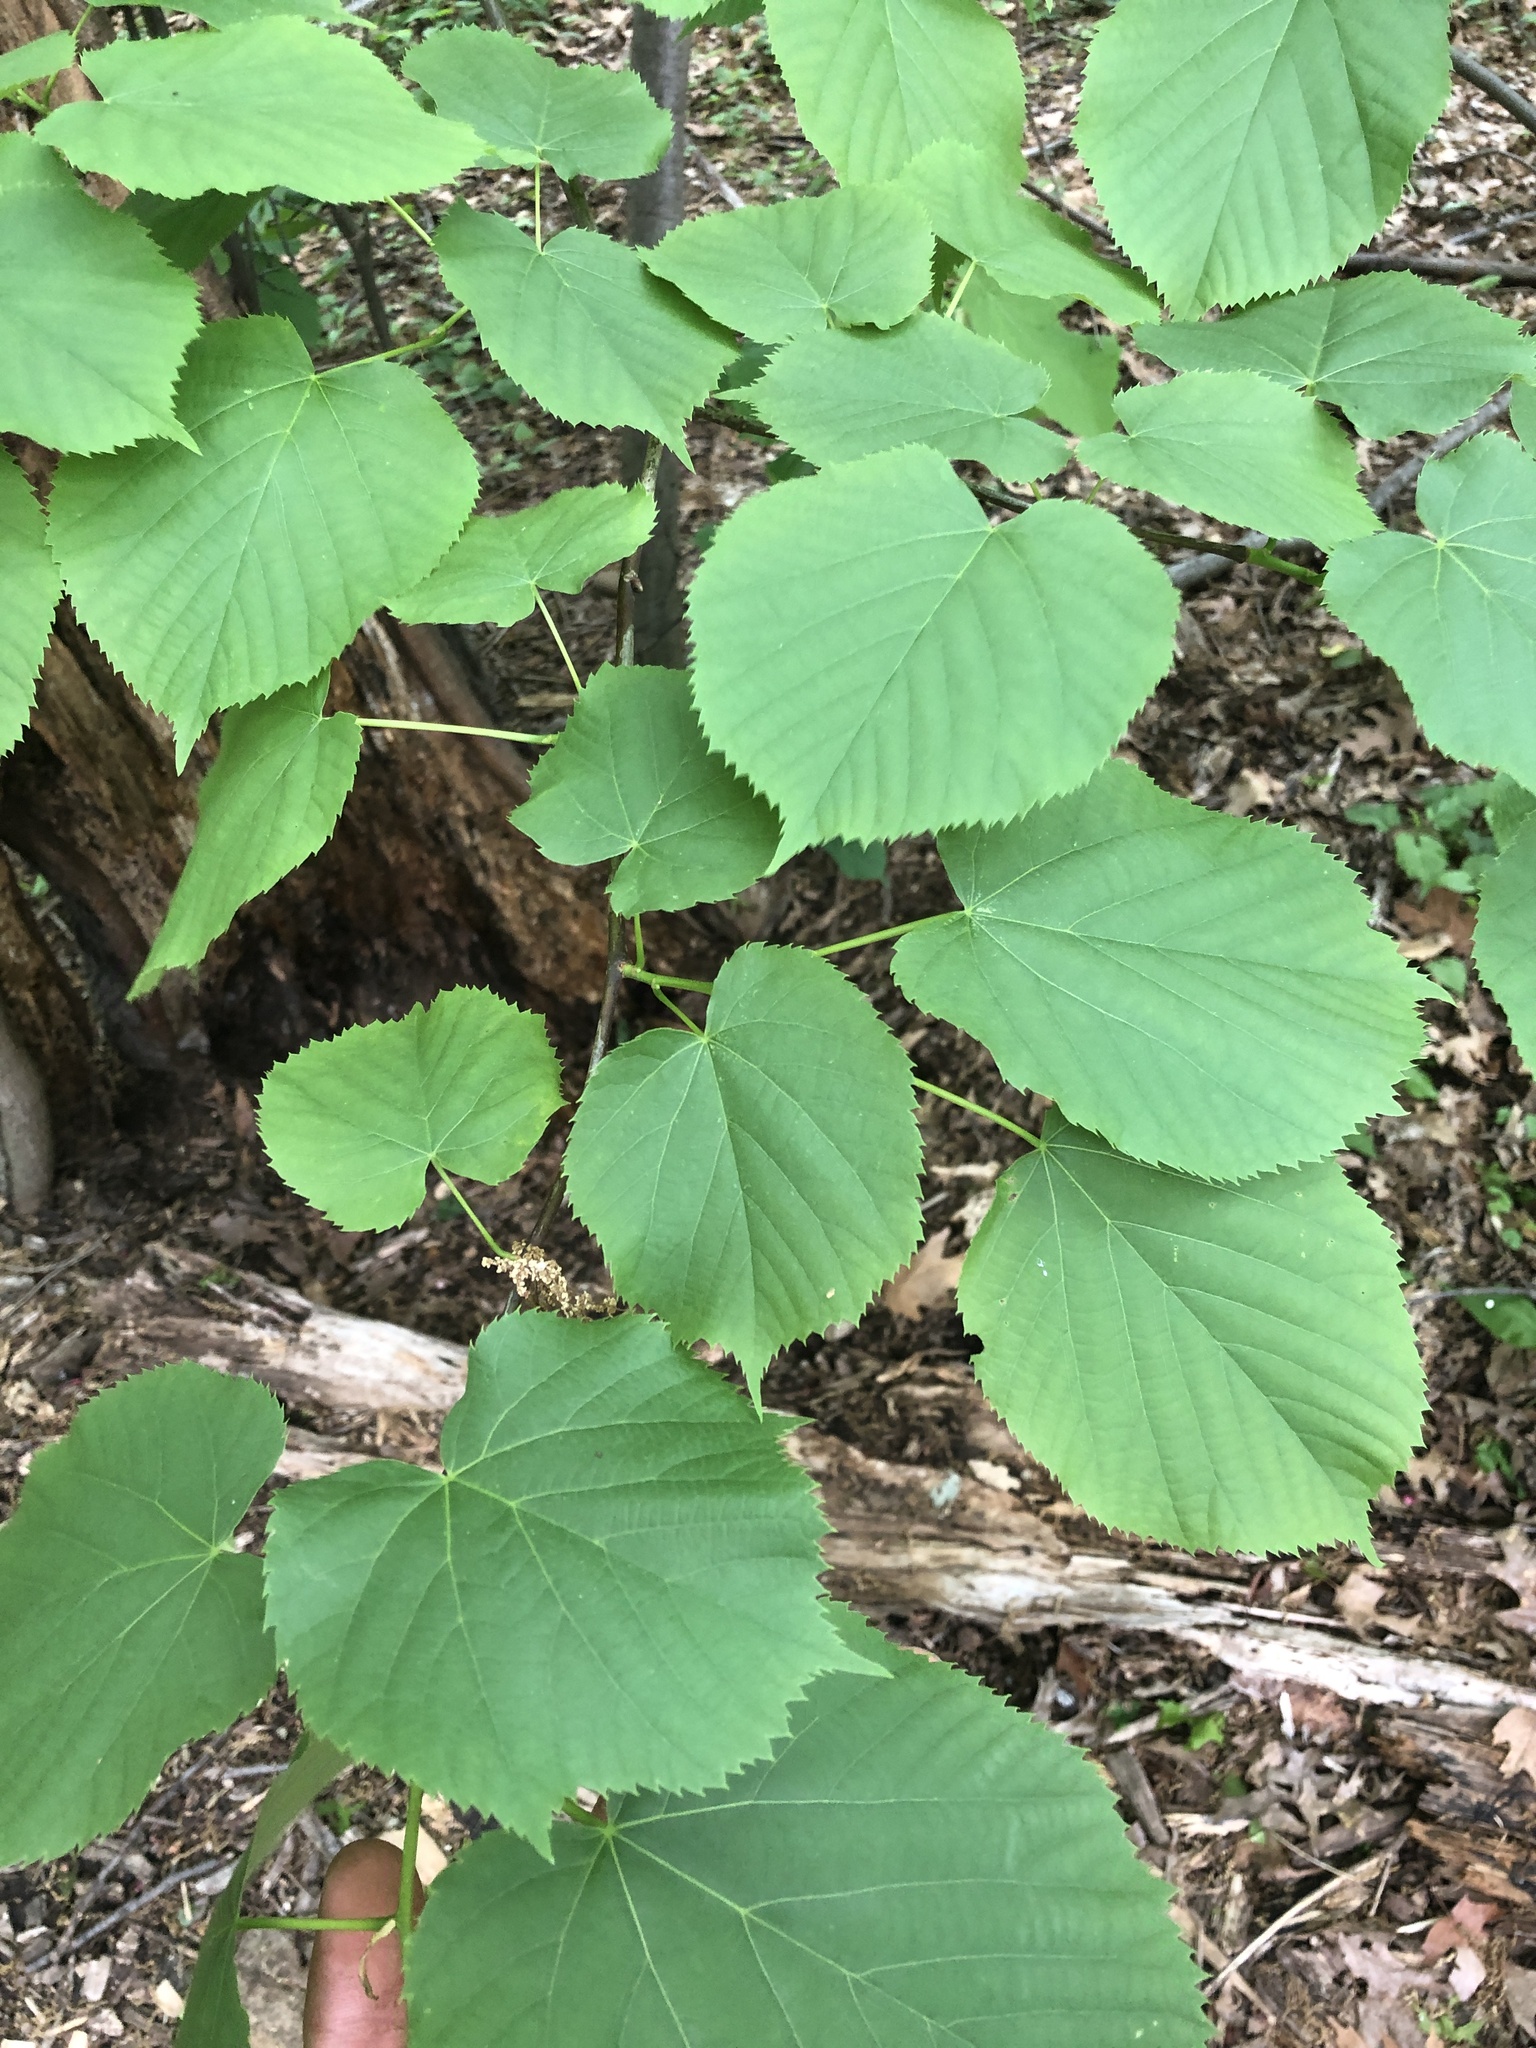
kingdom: Plantae
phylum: Tracheophyta
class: Magnoliopsida
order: Malvales
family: Malvaceae
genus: Tilia
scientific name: Tilia americana
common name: Basswood
